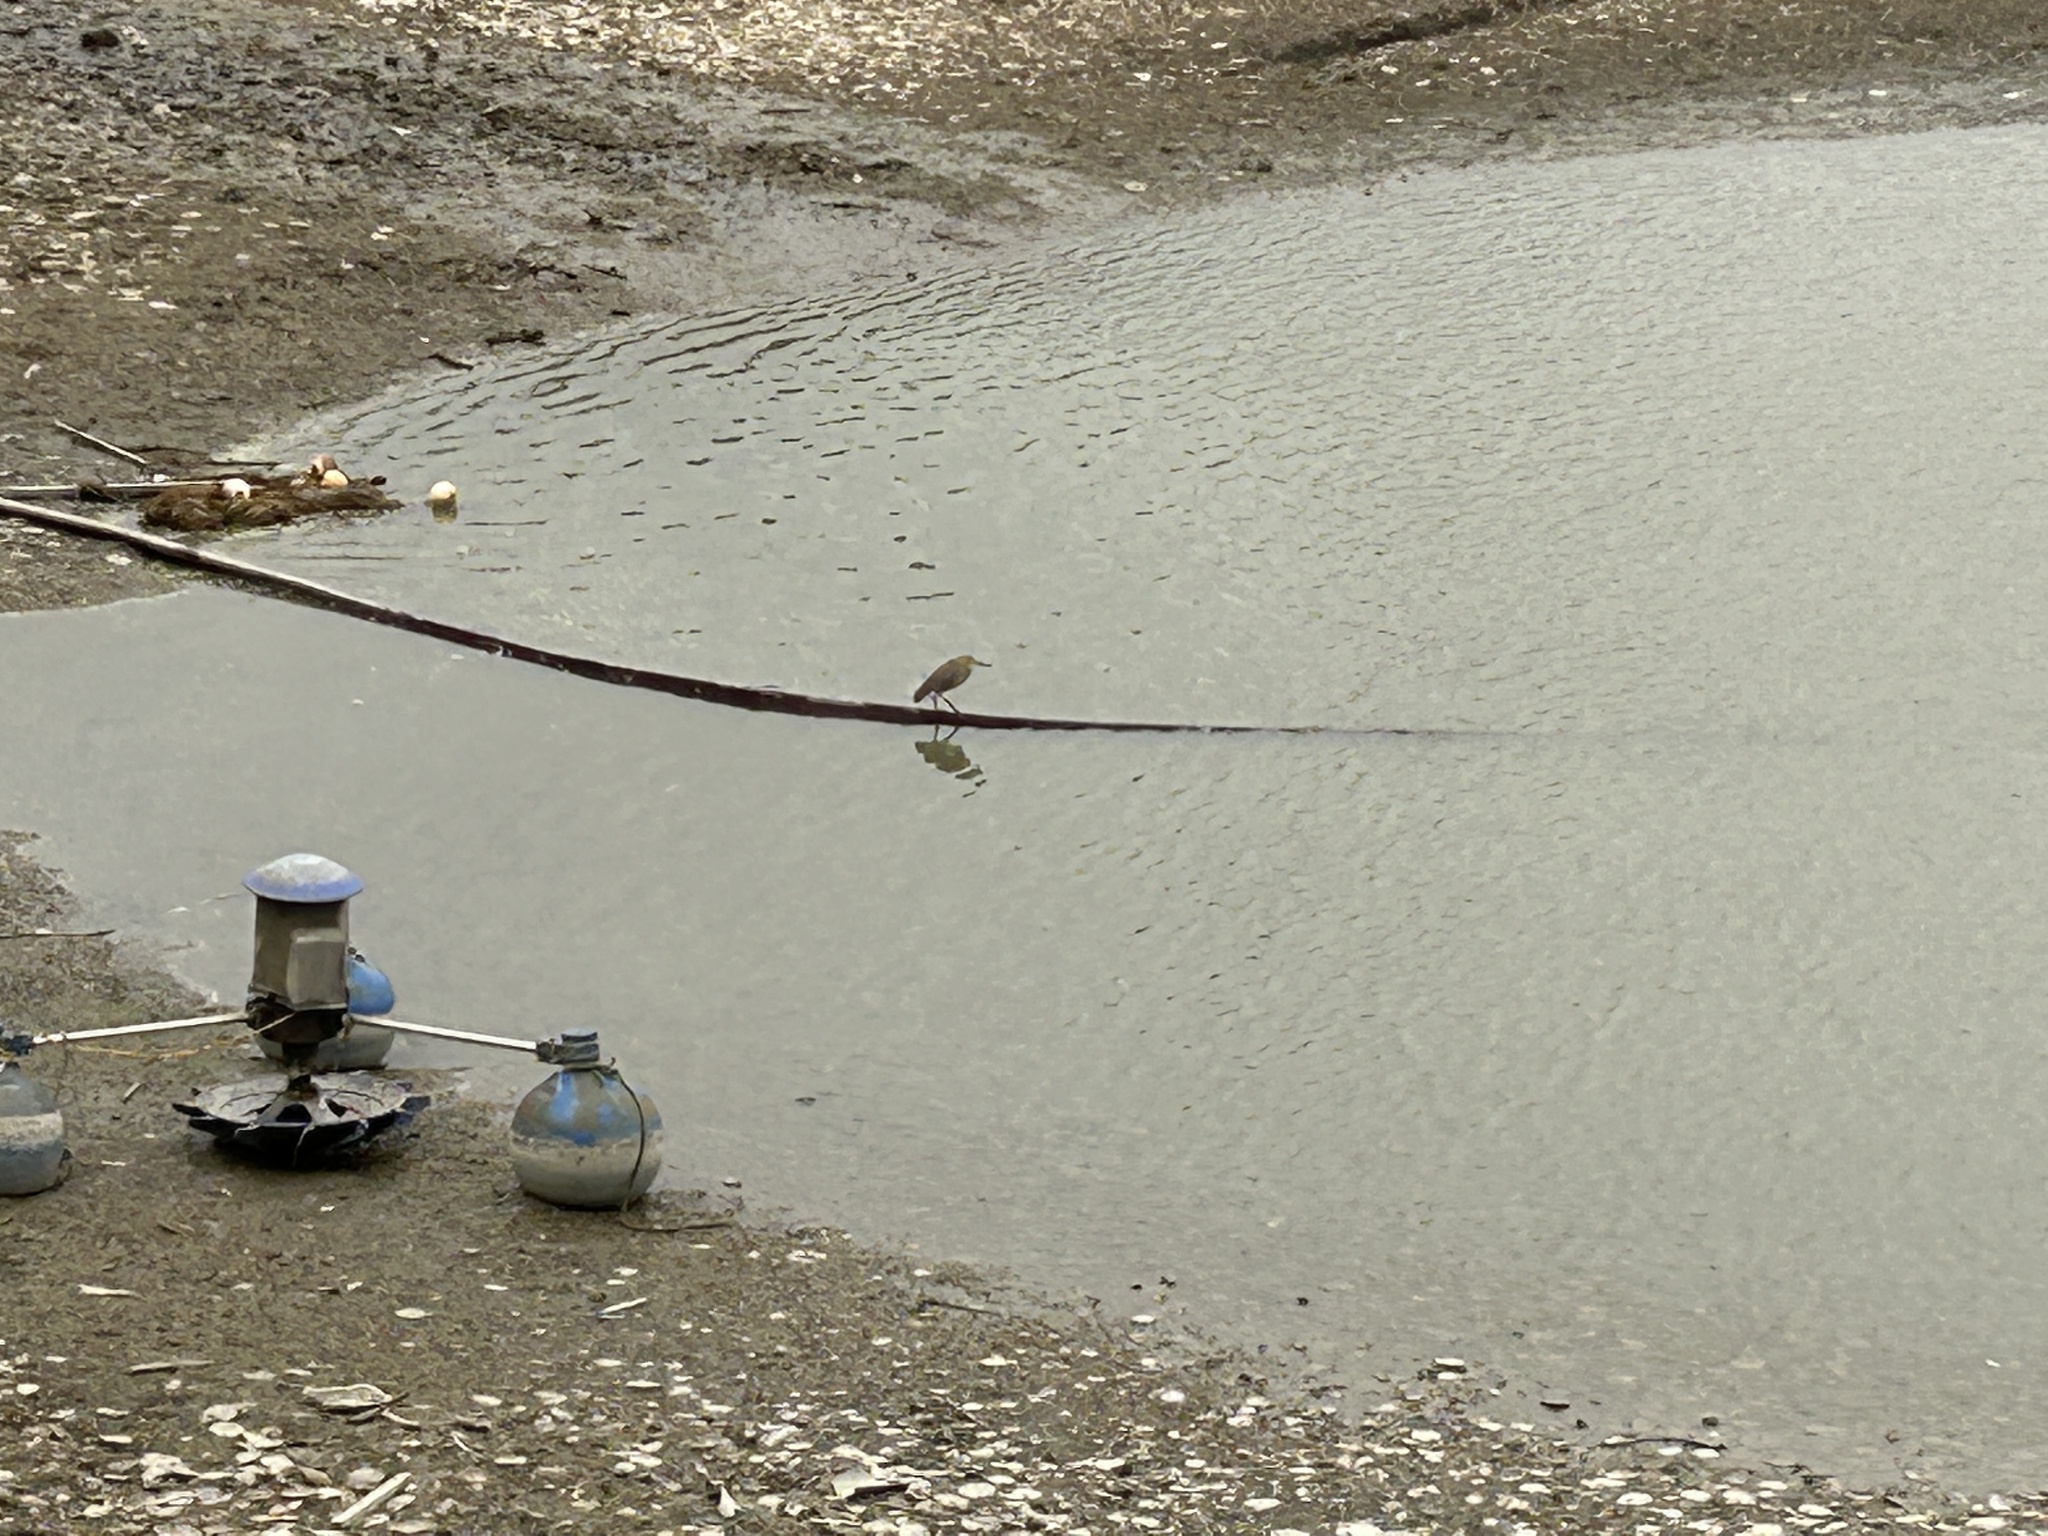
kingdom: Animalia
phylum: Chordata
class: Aves
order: Pelecaniformes
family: Ardeidae
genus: Ardeola
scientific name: Ardeola bacchus
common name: Chinese pond heron
